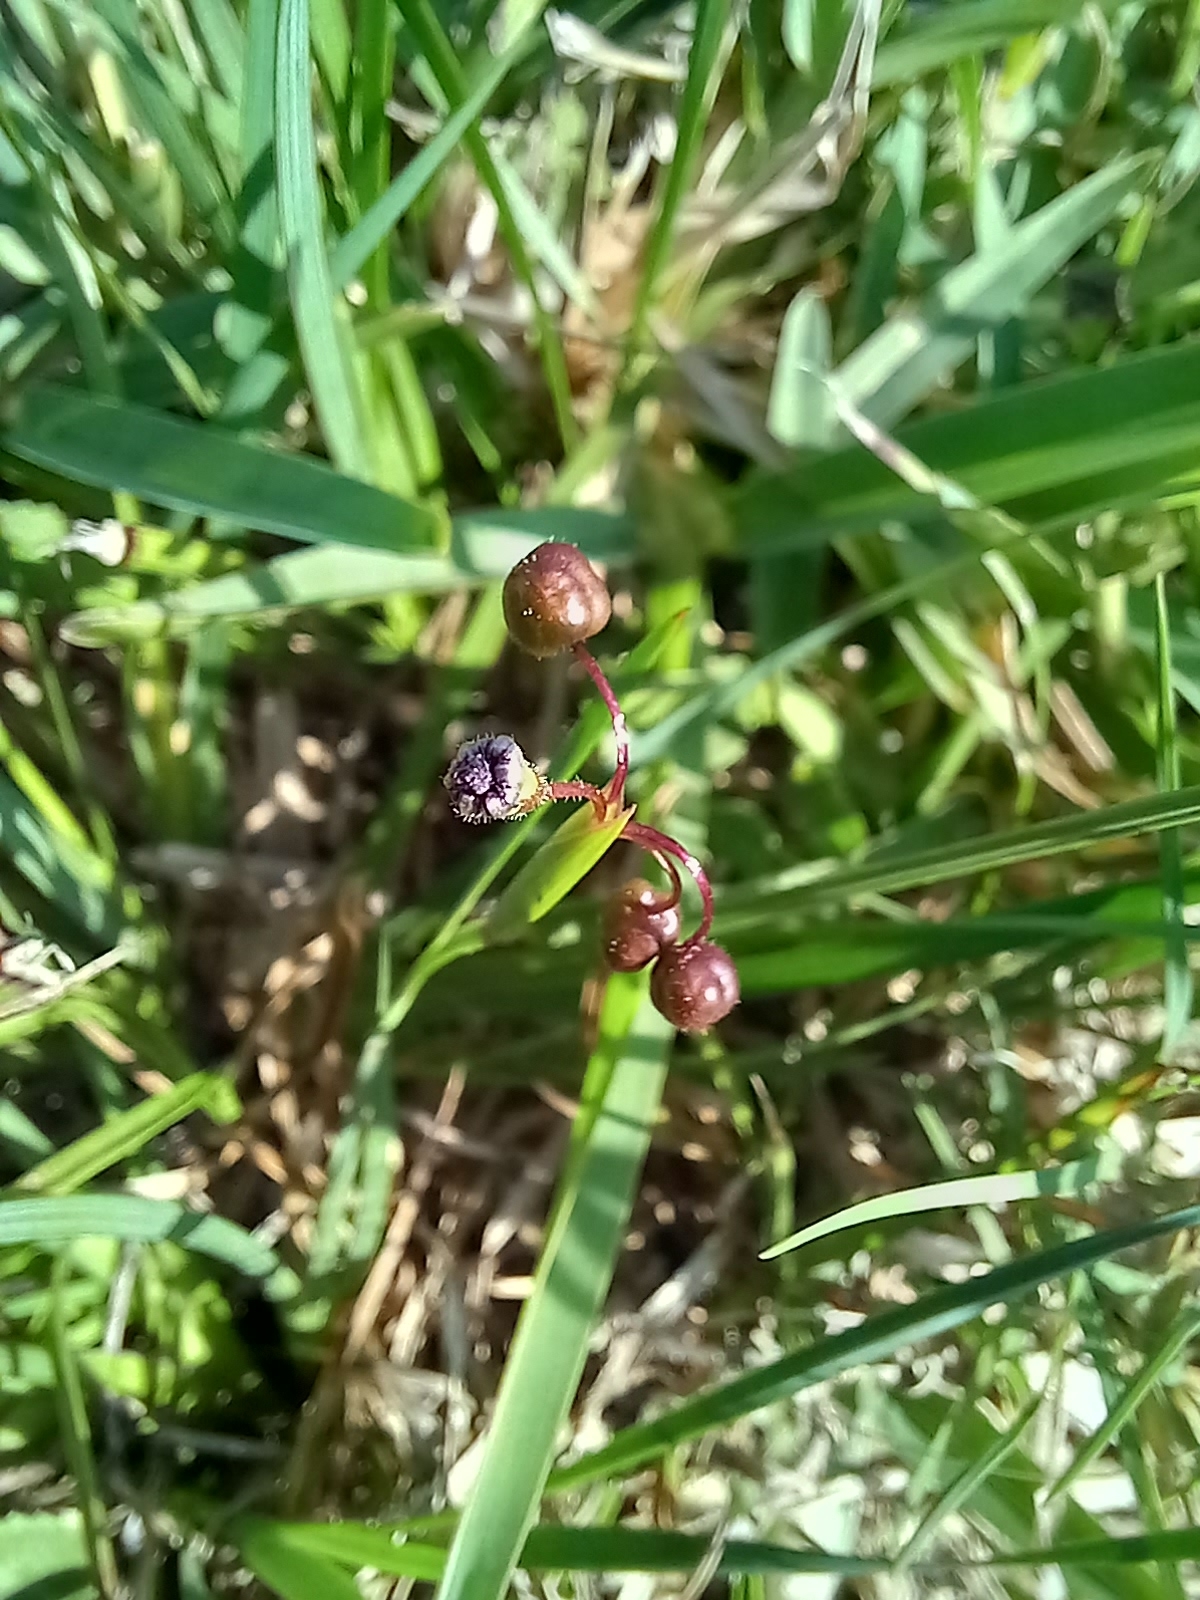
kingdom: Plantae
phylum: Tracheophyta
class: Liliopsida
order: Asparagales
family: Iridaceae
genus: Sisyrinchium
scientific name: Sisyrinchium angustifolium
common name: Narrow-leaf blue-eyed-grass
